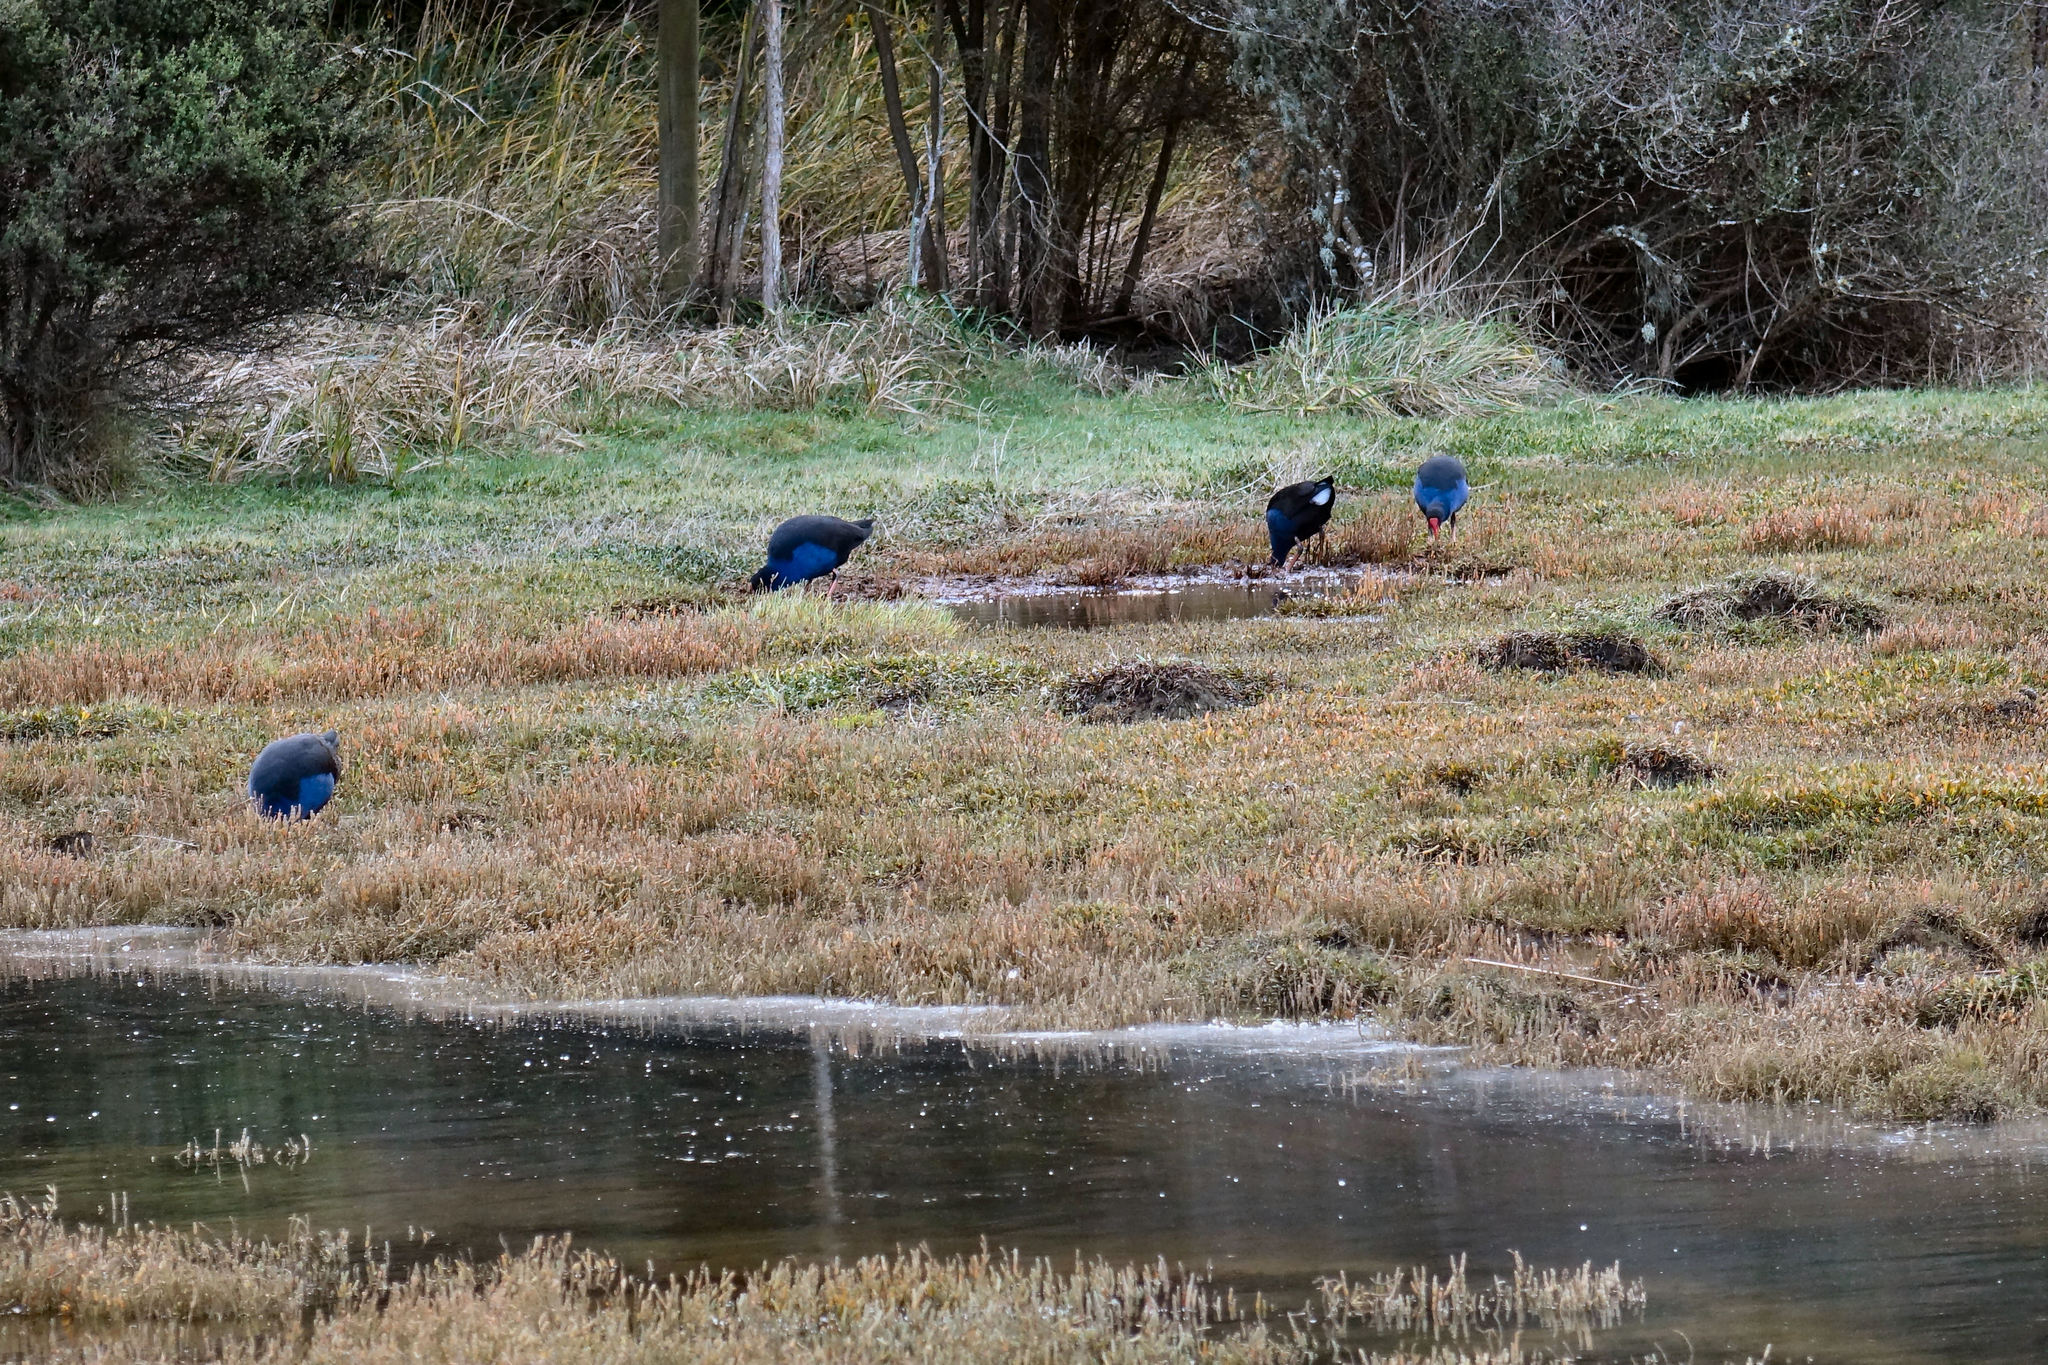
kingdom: Animalia
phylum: Chordata
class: Aves
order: Gruiformes
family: Rallidae
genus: Porphyrio
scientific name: Porphyrio melanotus
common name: Australasian swamphen
